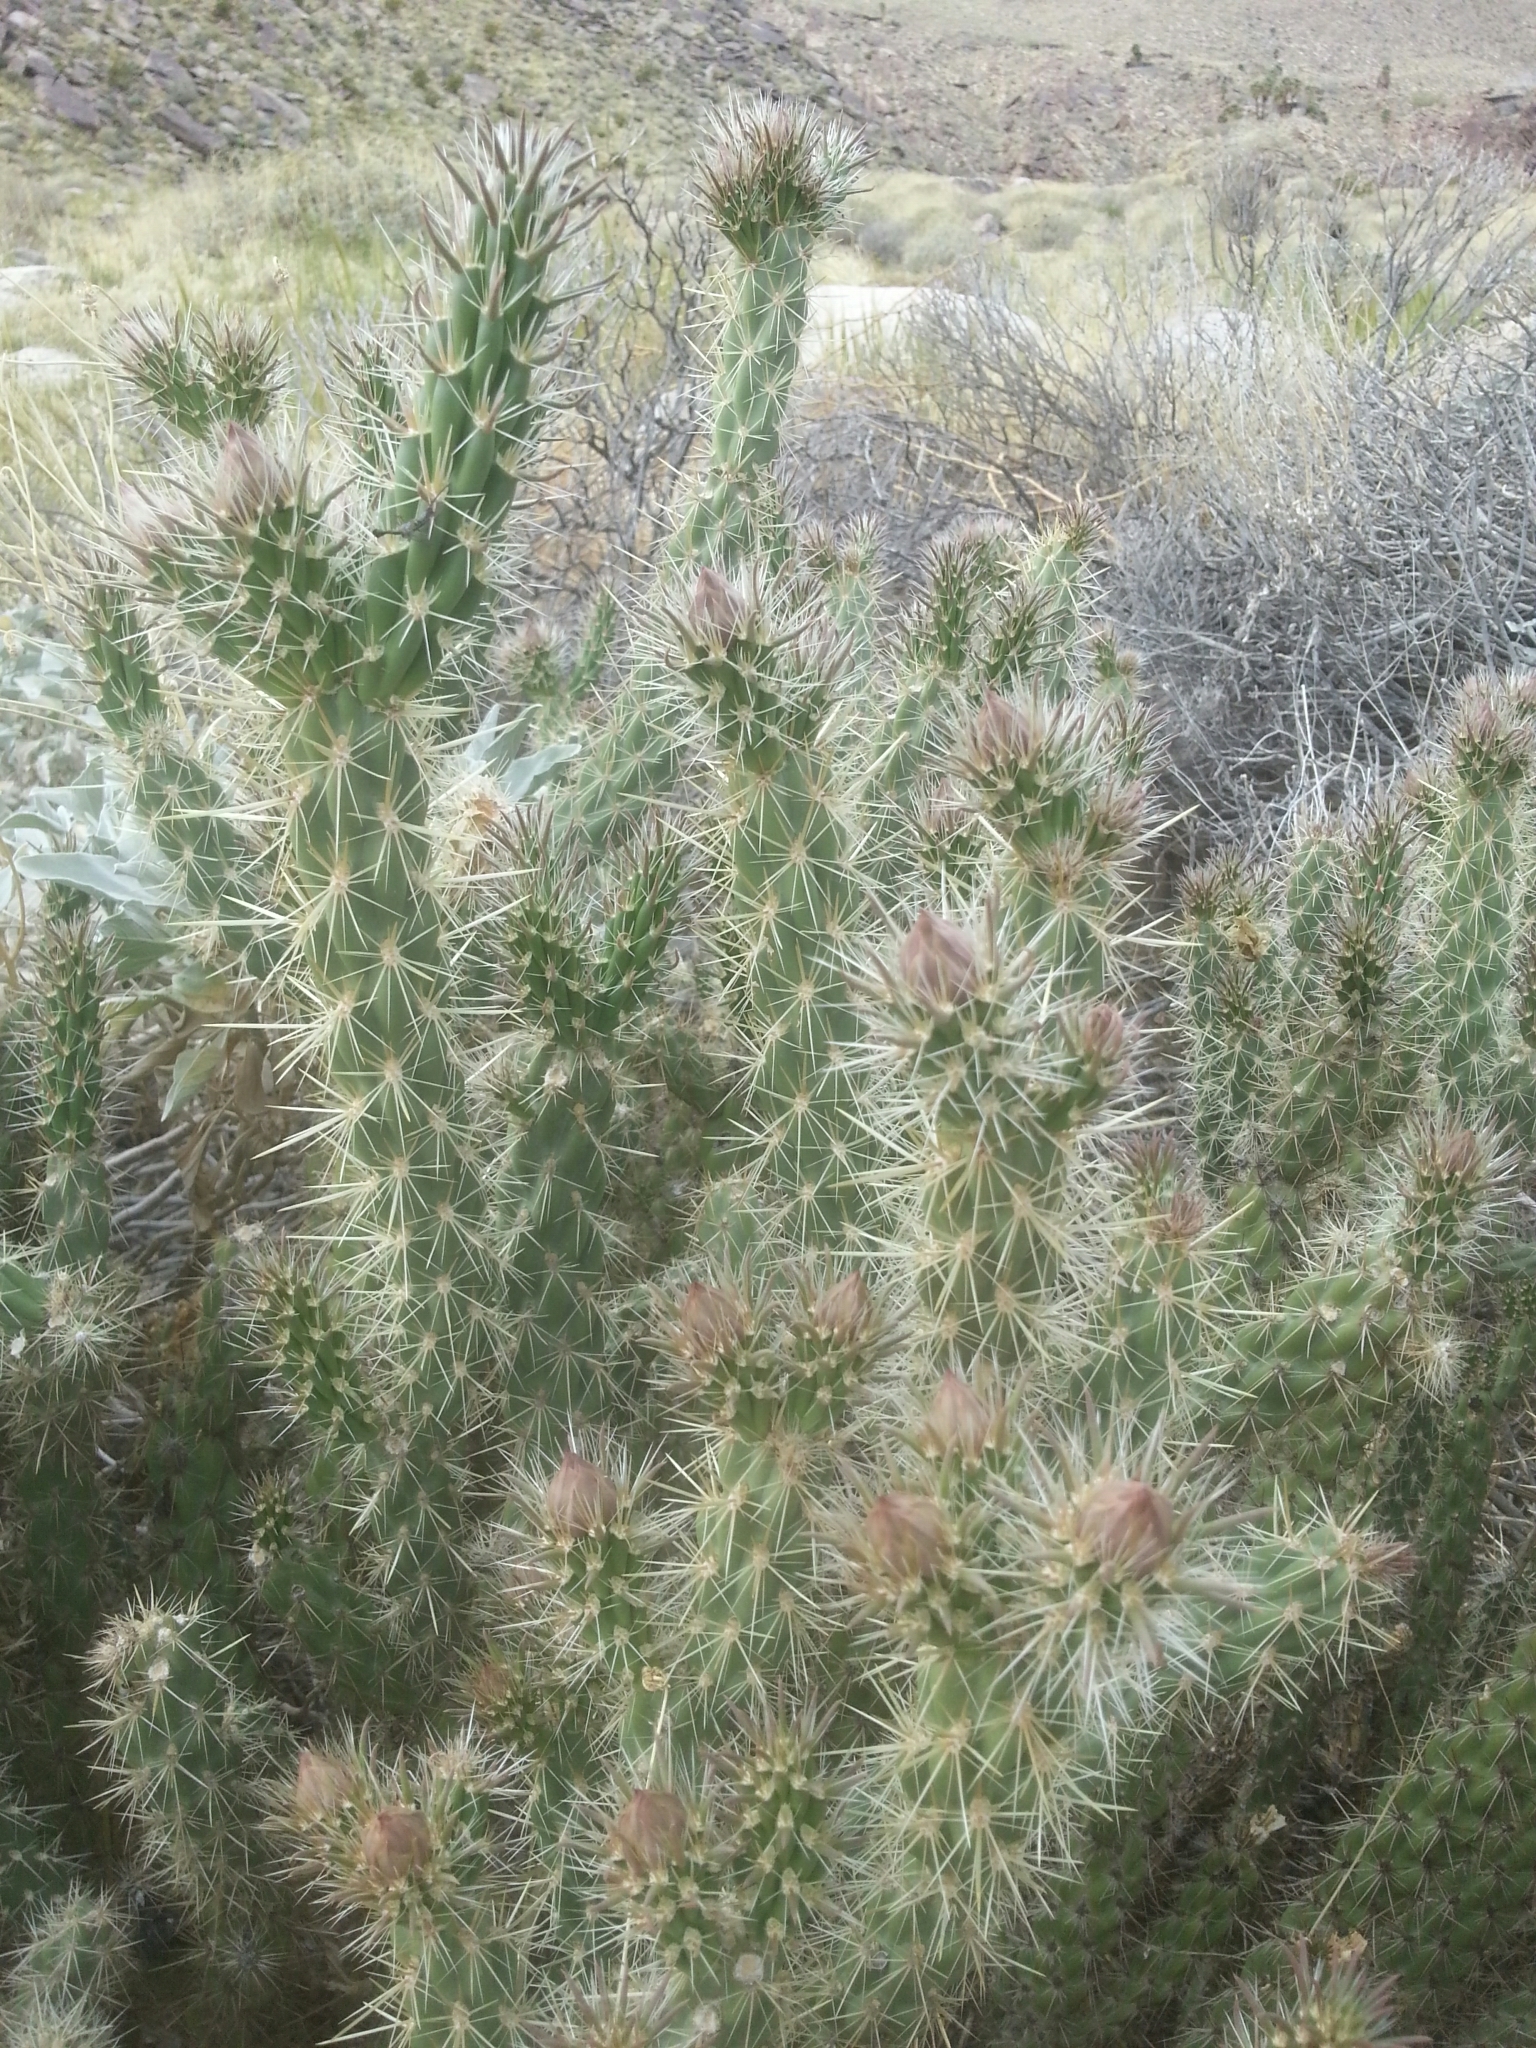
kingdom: Plantae
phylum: Tracheophyta
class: Magnoliopsida
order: Caryophyllales
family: Cactaceae
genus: Cylindropuntia
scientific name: Cylindropuntia ganderi
